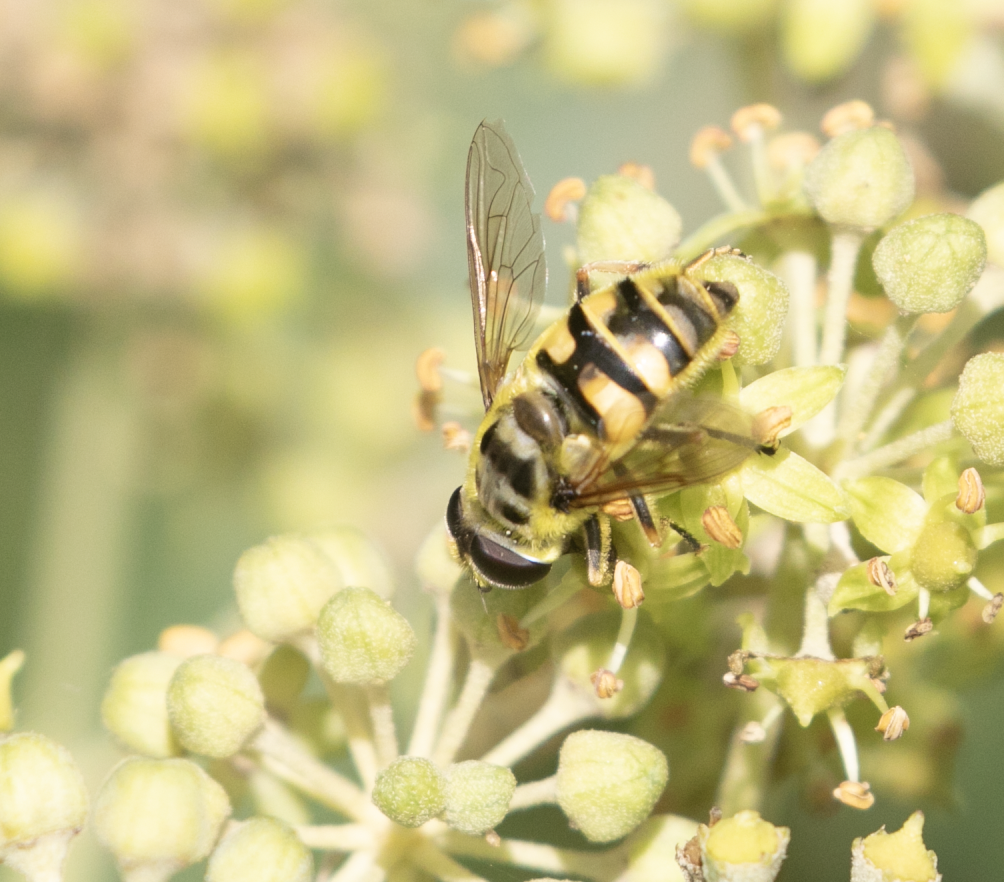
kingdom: Animalia
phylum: Arthropoda
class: Insecta
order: Diptera
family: Syrphidae
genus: Myathropa
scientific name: Myathropa florea
